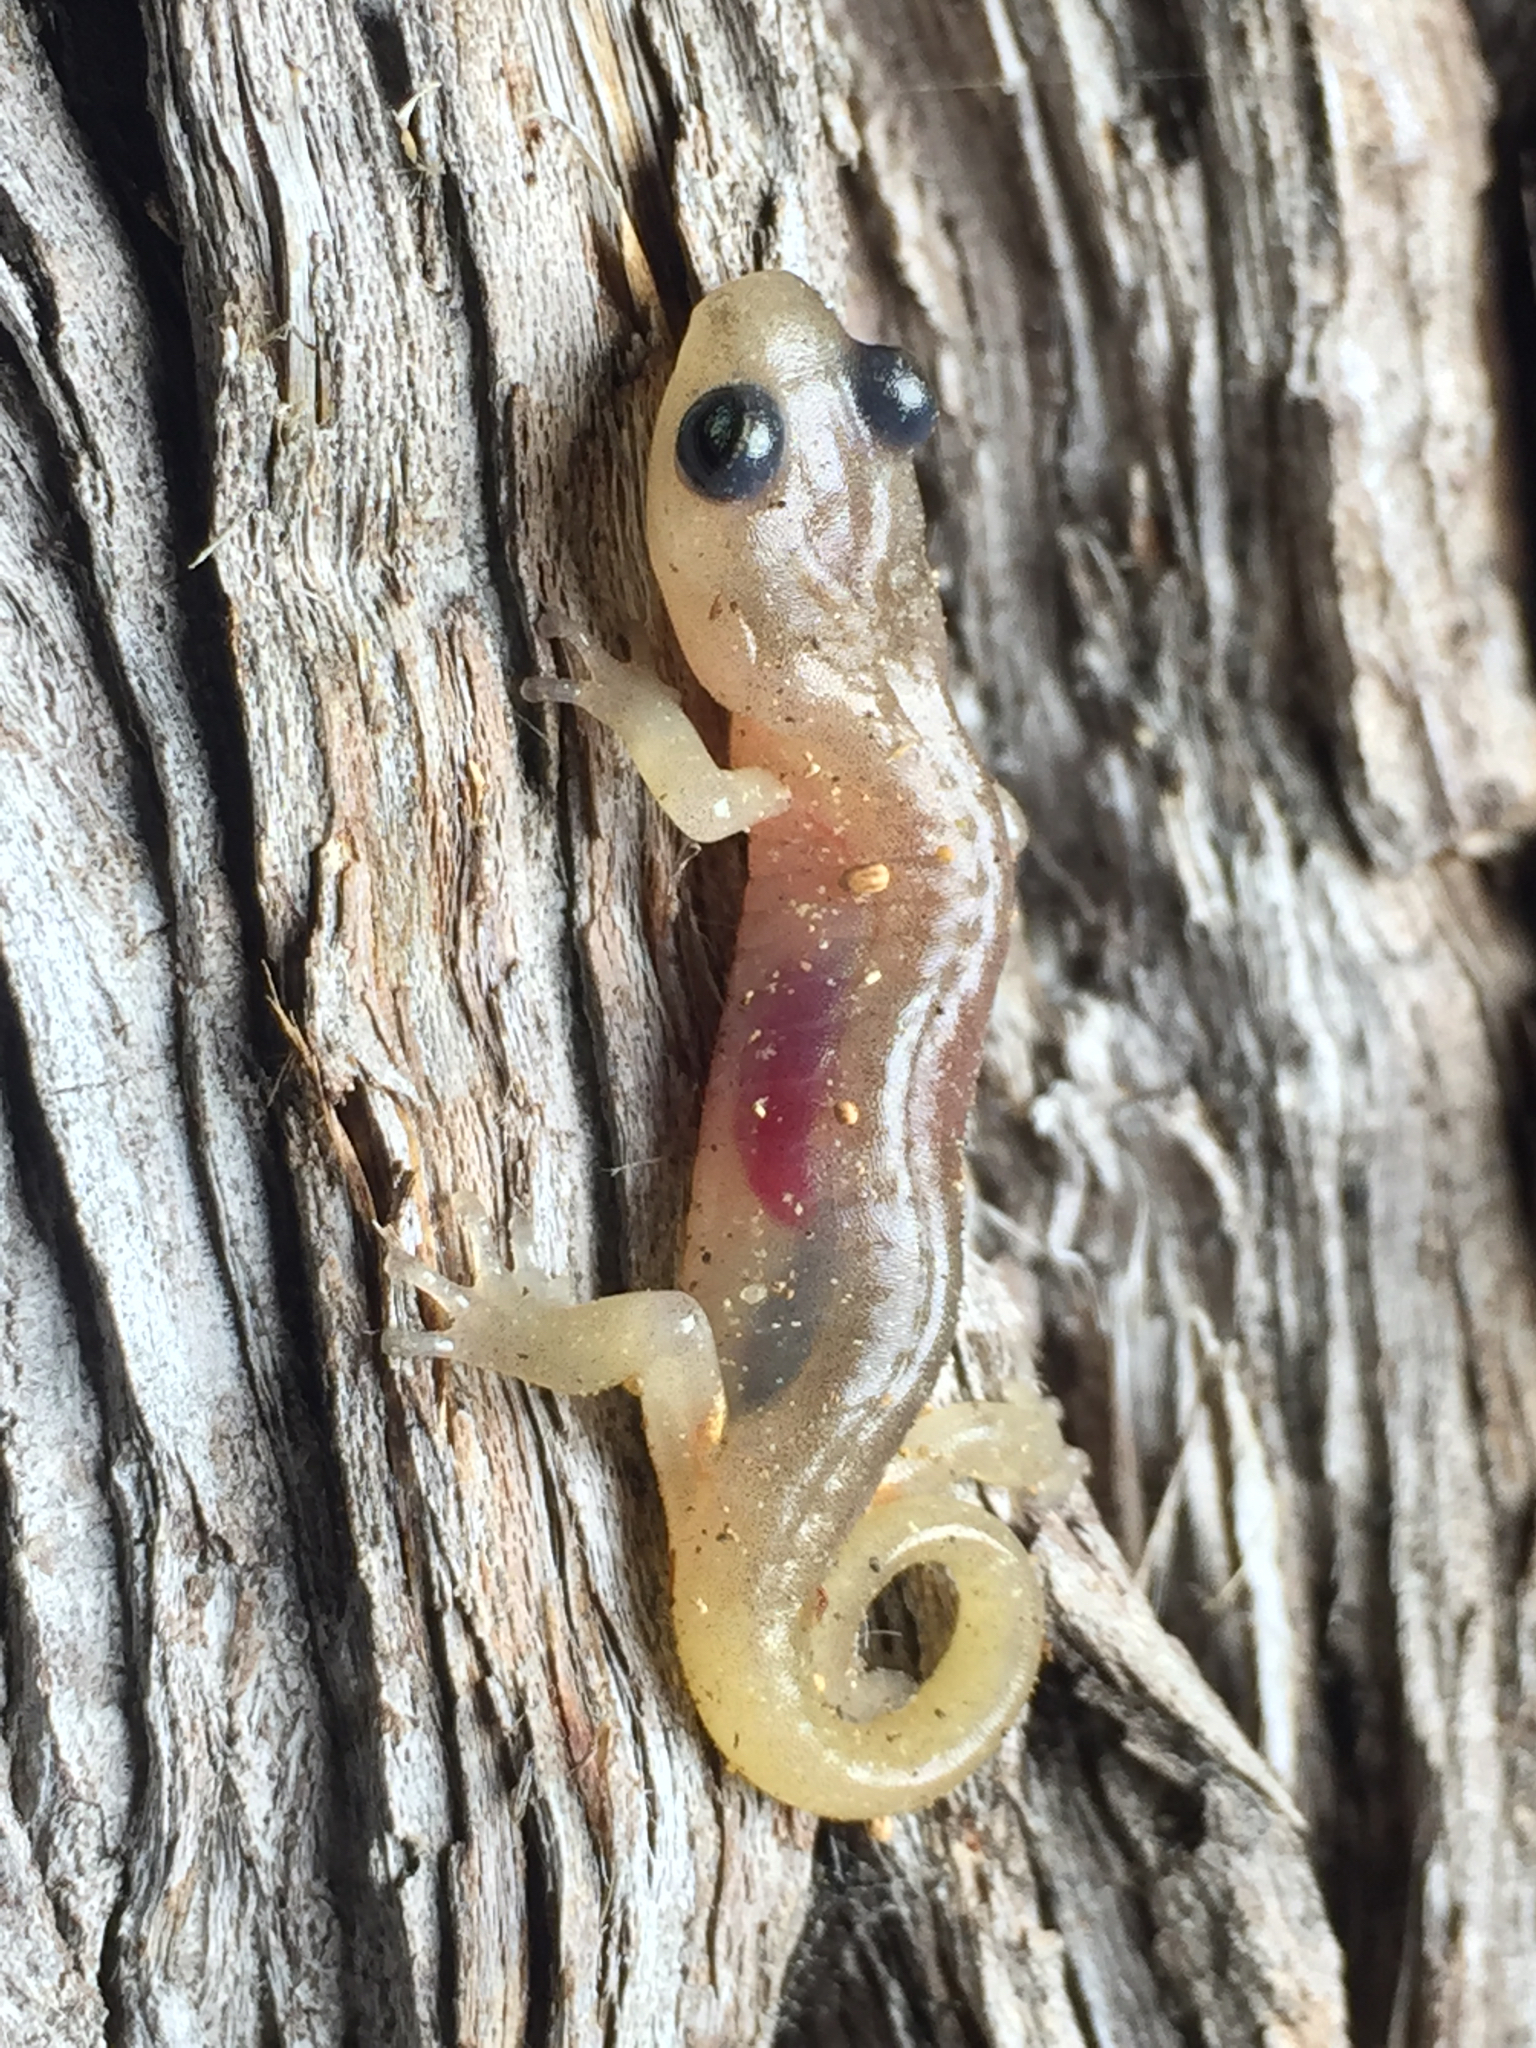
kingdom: Animalia
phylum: Chordata
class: Amphibia
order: Caudata
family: Plethodontidae
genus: Aneides
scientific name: Aneides lugubris
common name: Arboreal salamander
